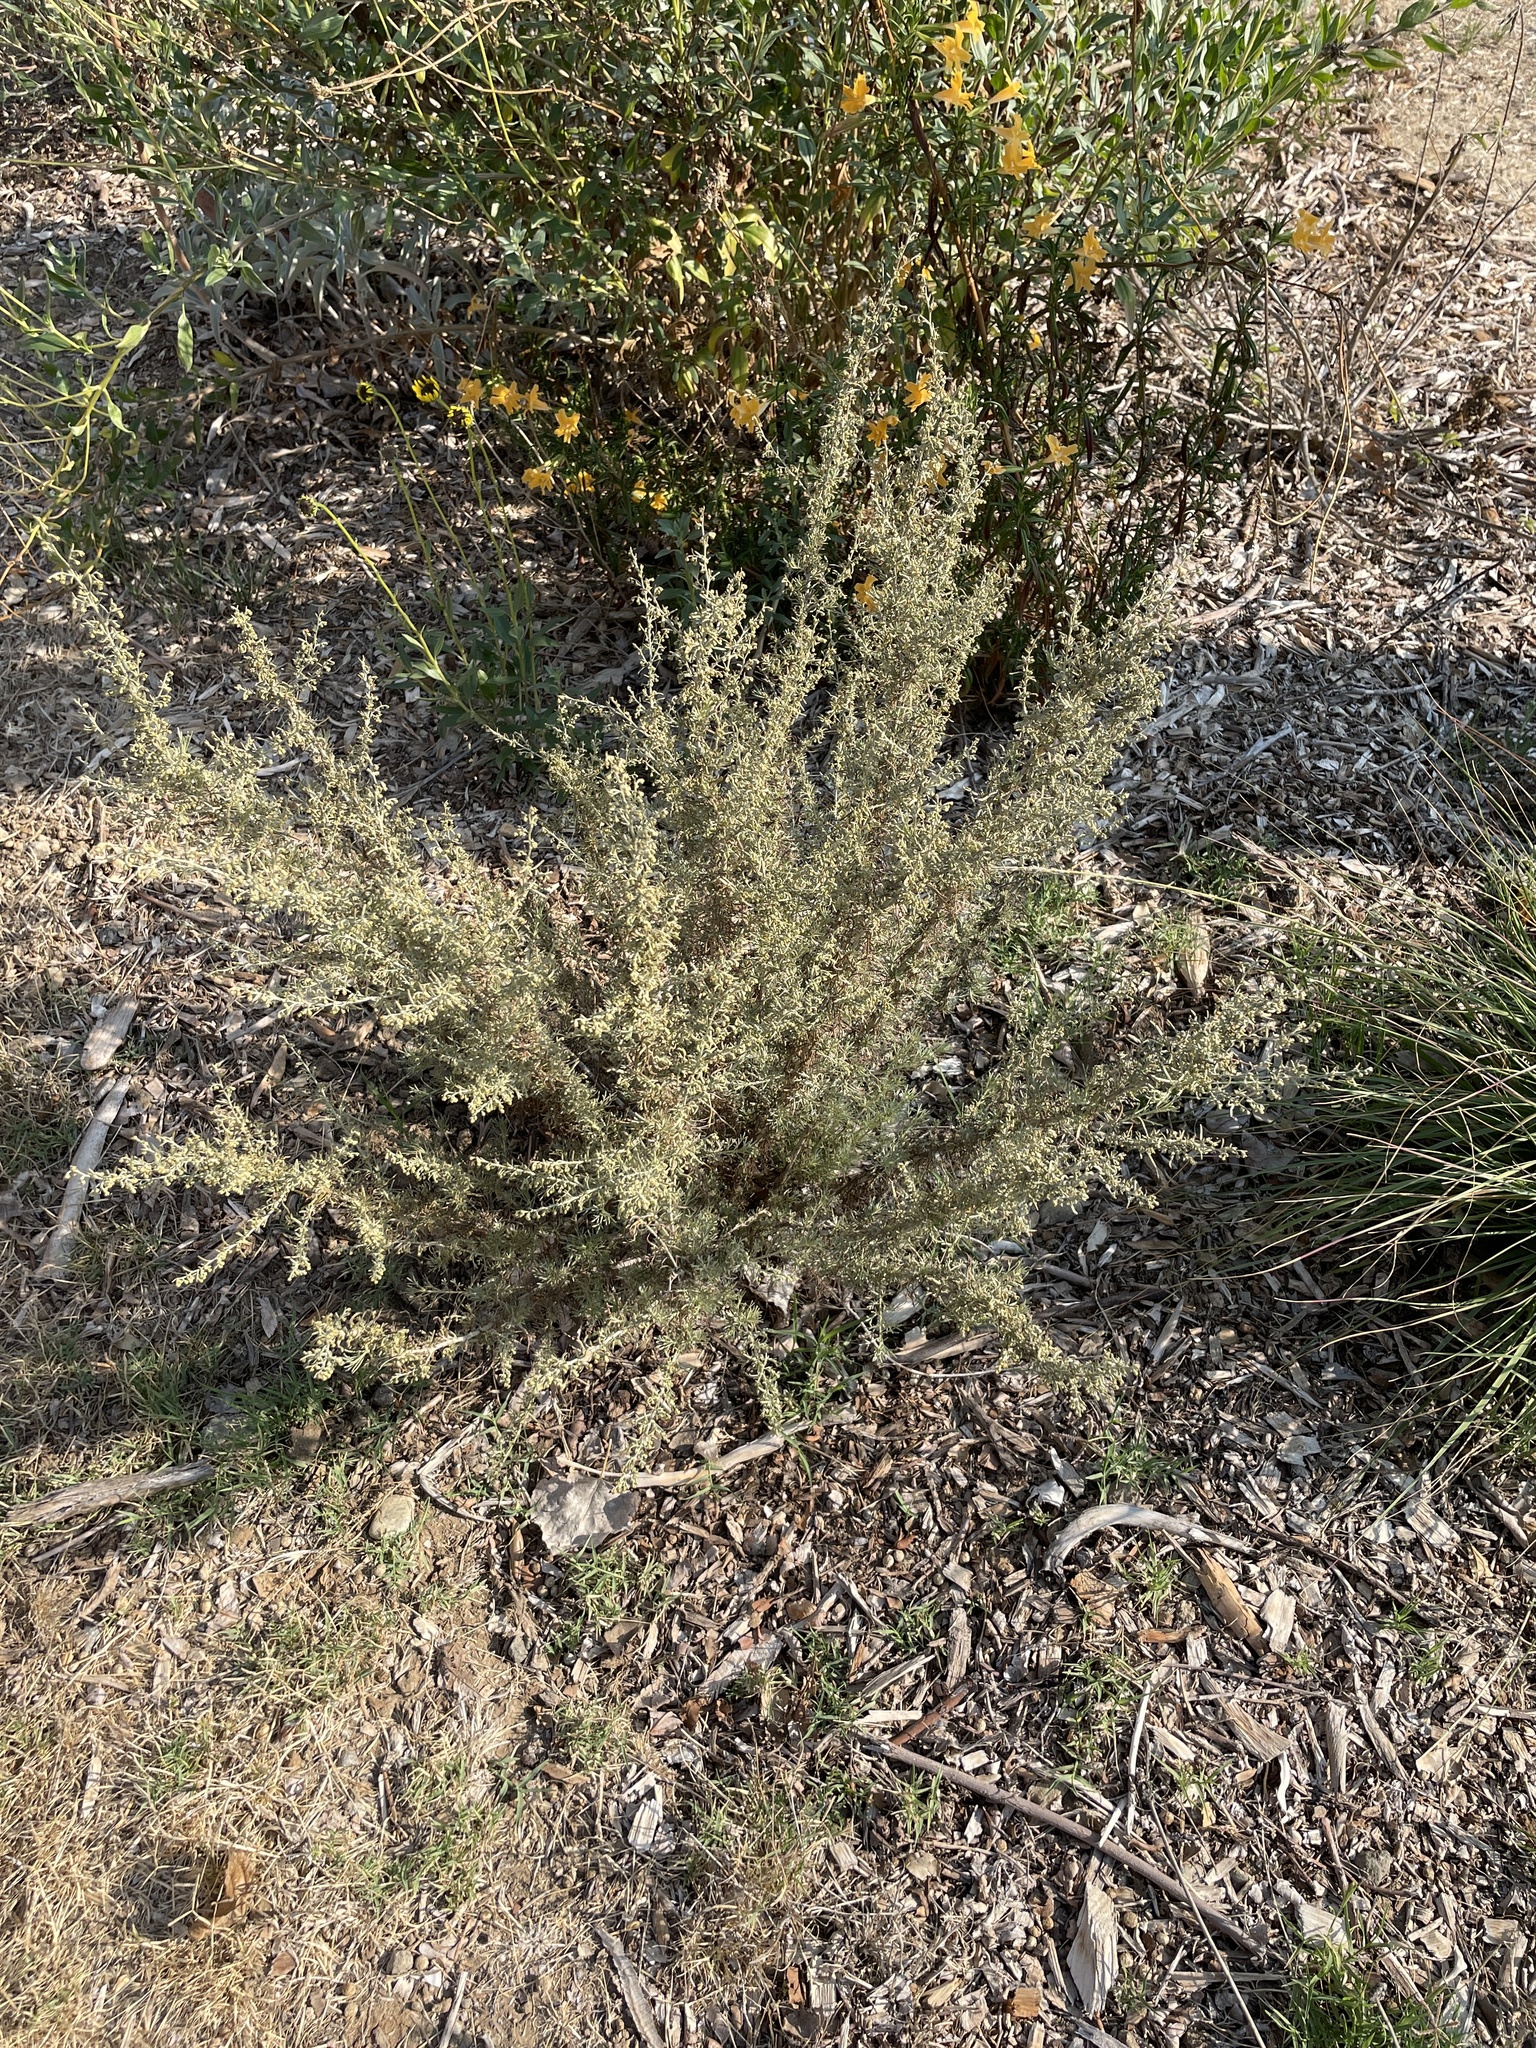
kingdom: Plantae
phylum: Tracheophyta
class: Magnoliopsida
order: Asterales
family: Asteraceae
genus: Artemisia
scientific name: Artemisia californica
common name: California sagebrush
